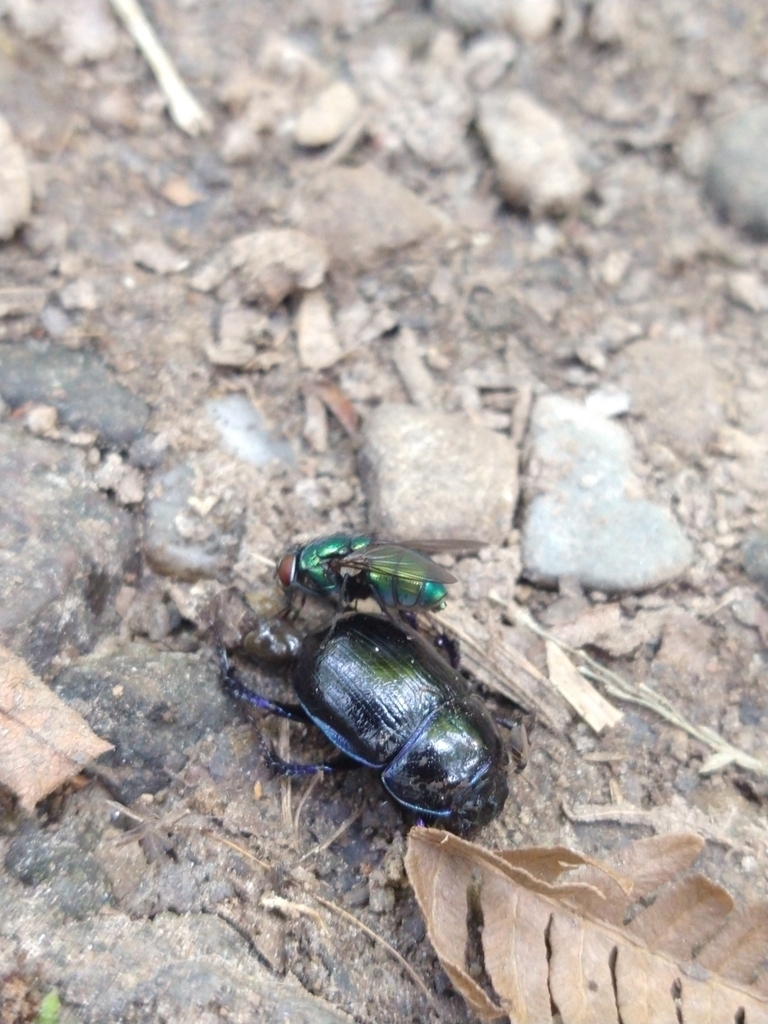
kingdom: Animalia
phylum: Arthropoda
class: Insecta
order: Diptera
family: Calliphoridae
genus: Lucilia
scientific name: Lucilia
